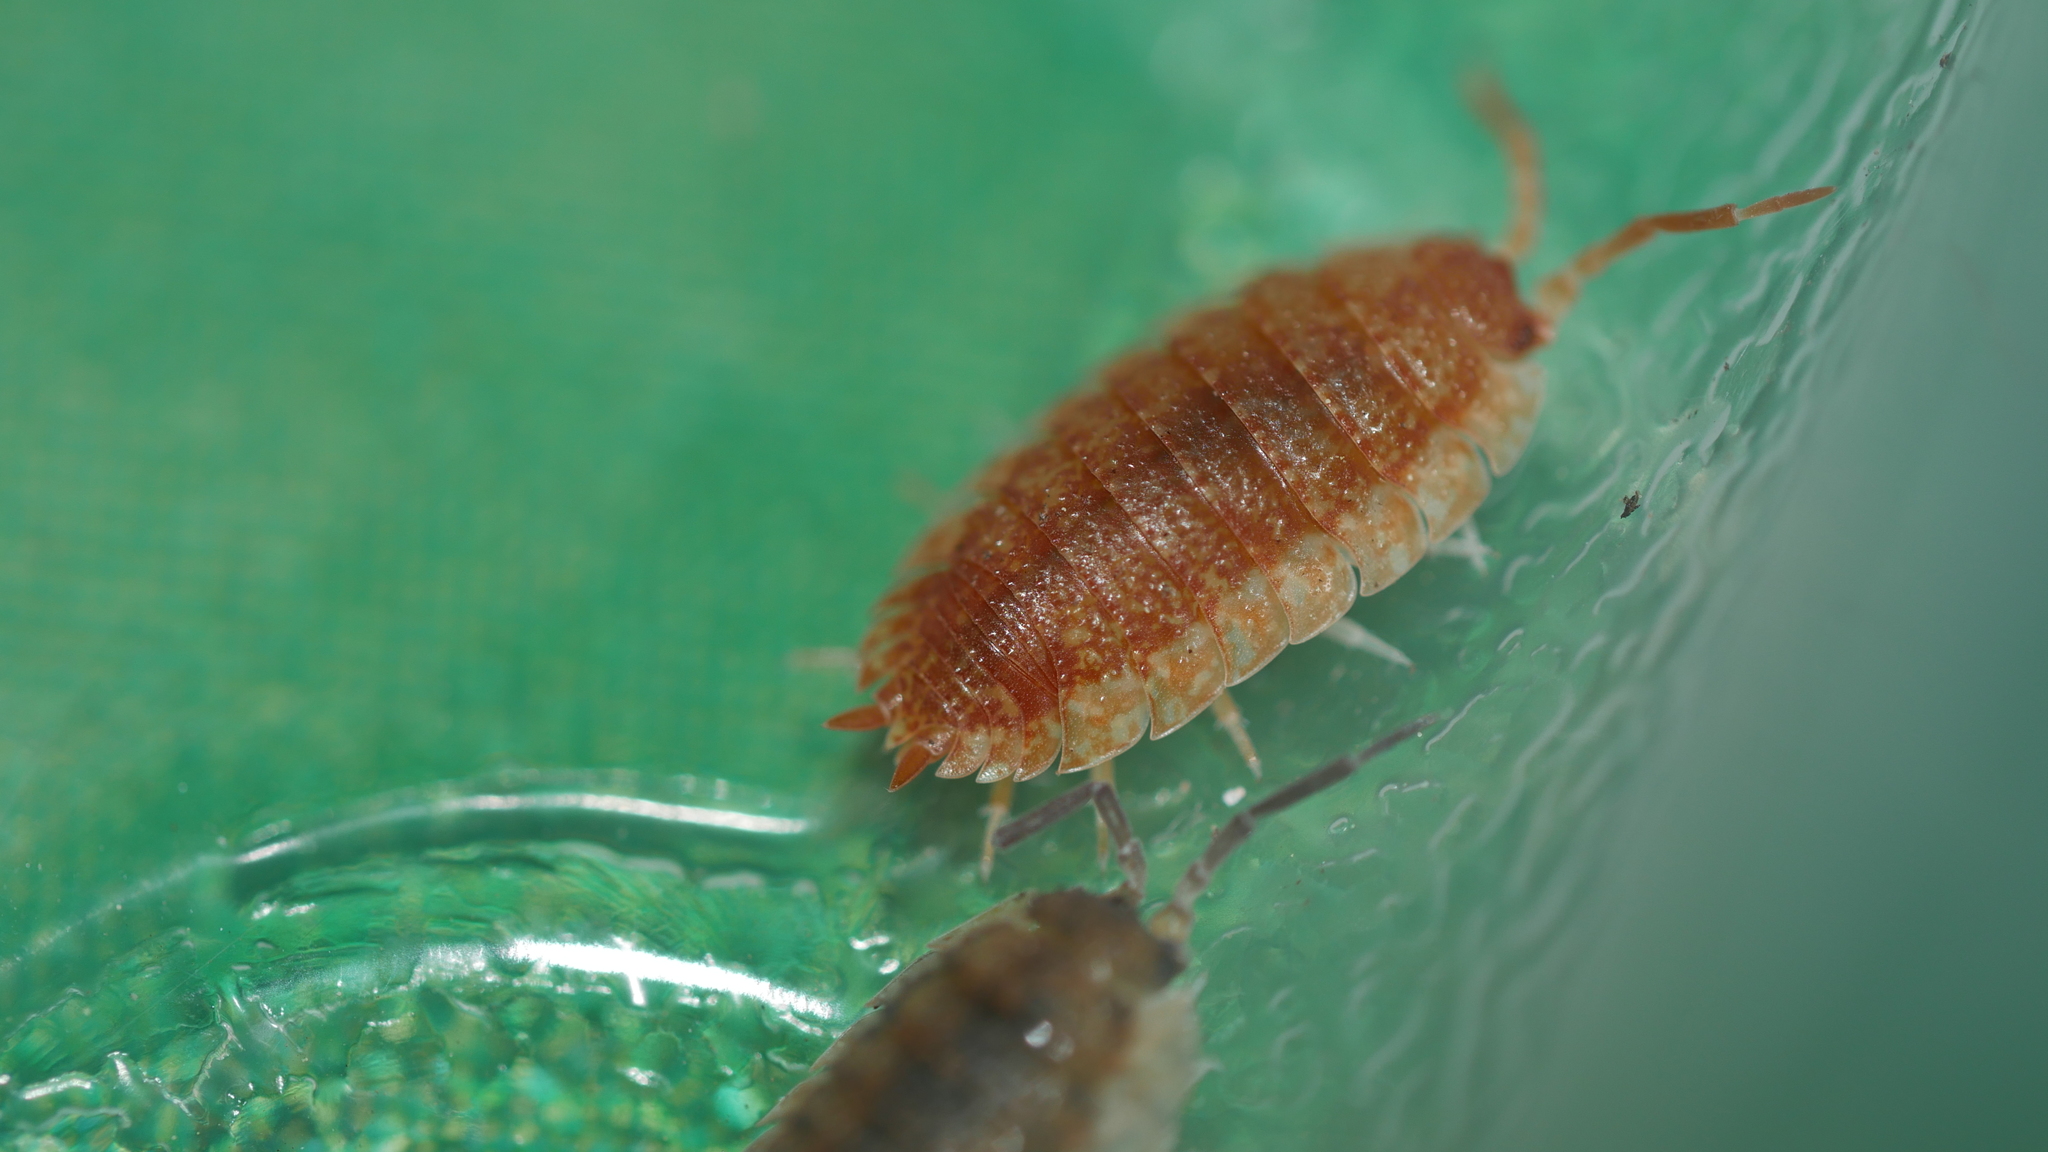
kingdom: Animalia
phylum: Arthropoda
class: Malacostraca
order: Isopoda
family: Porcellionidae
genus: Porcellio
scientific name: Porcellio scaber
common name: Common rough woodlouse
